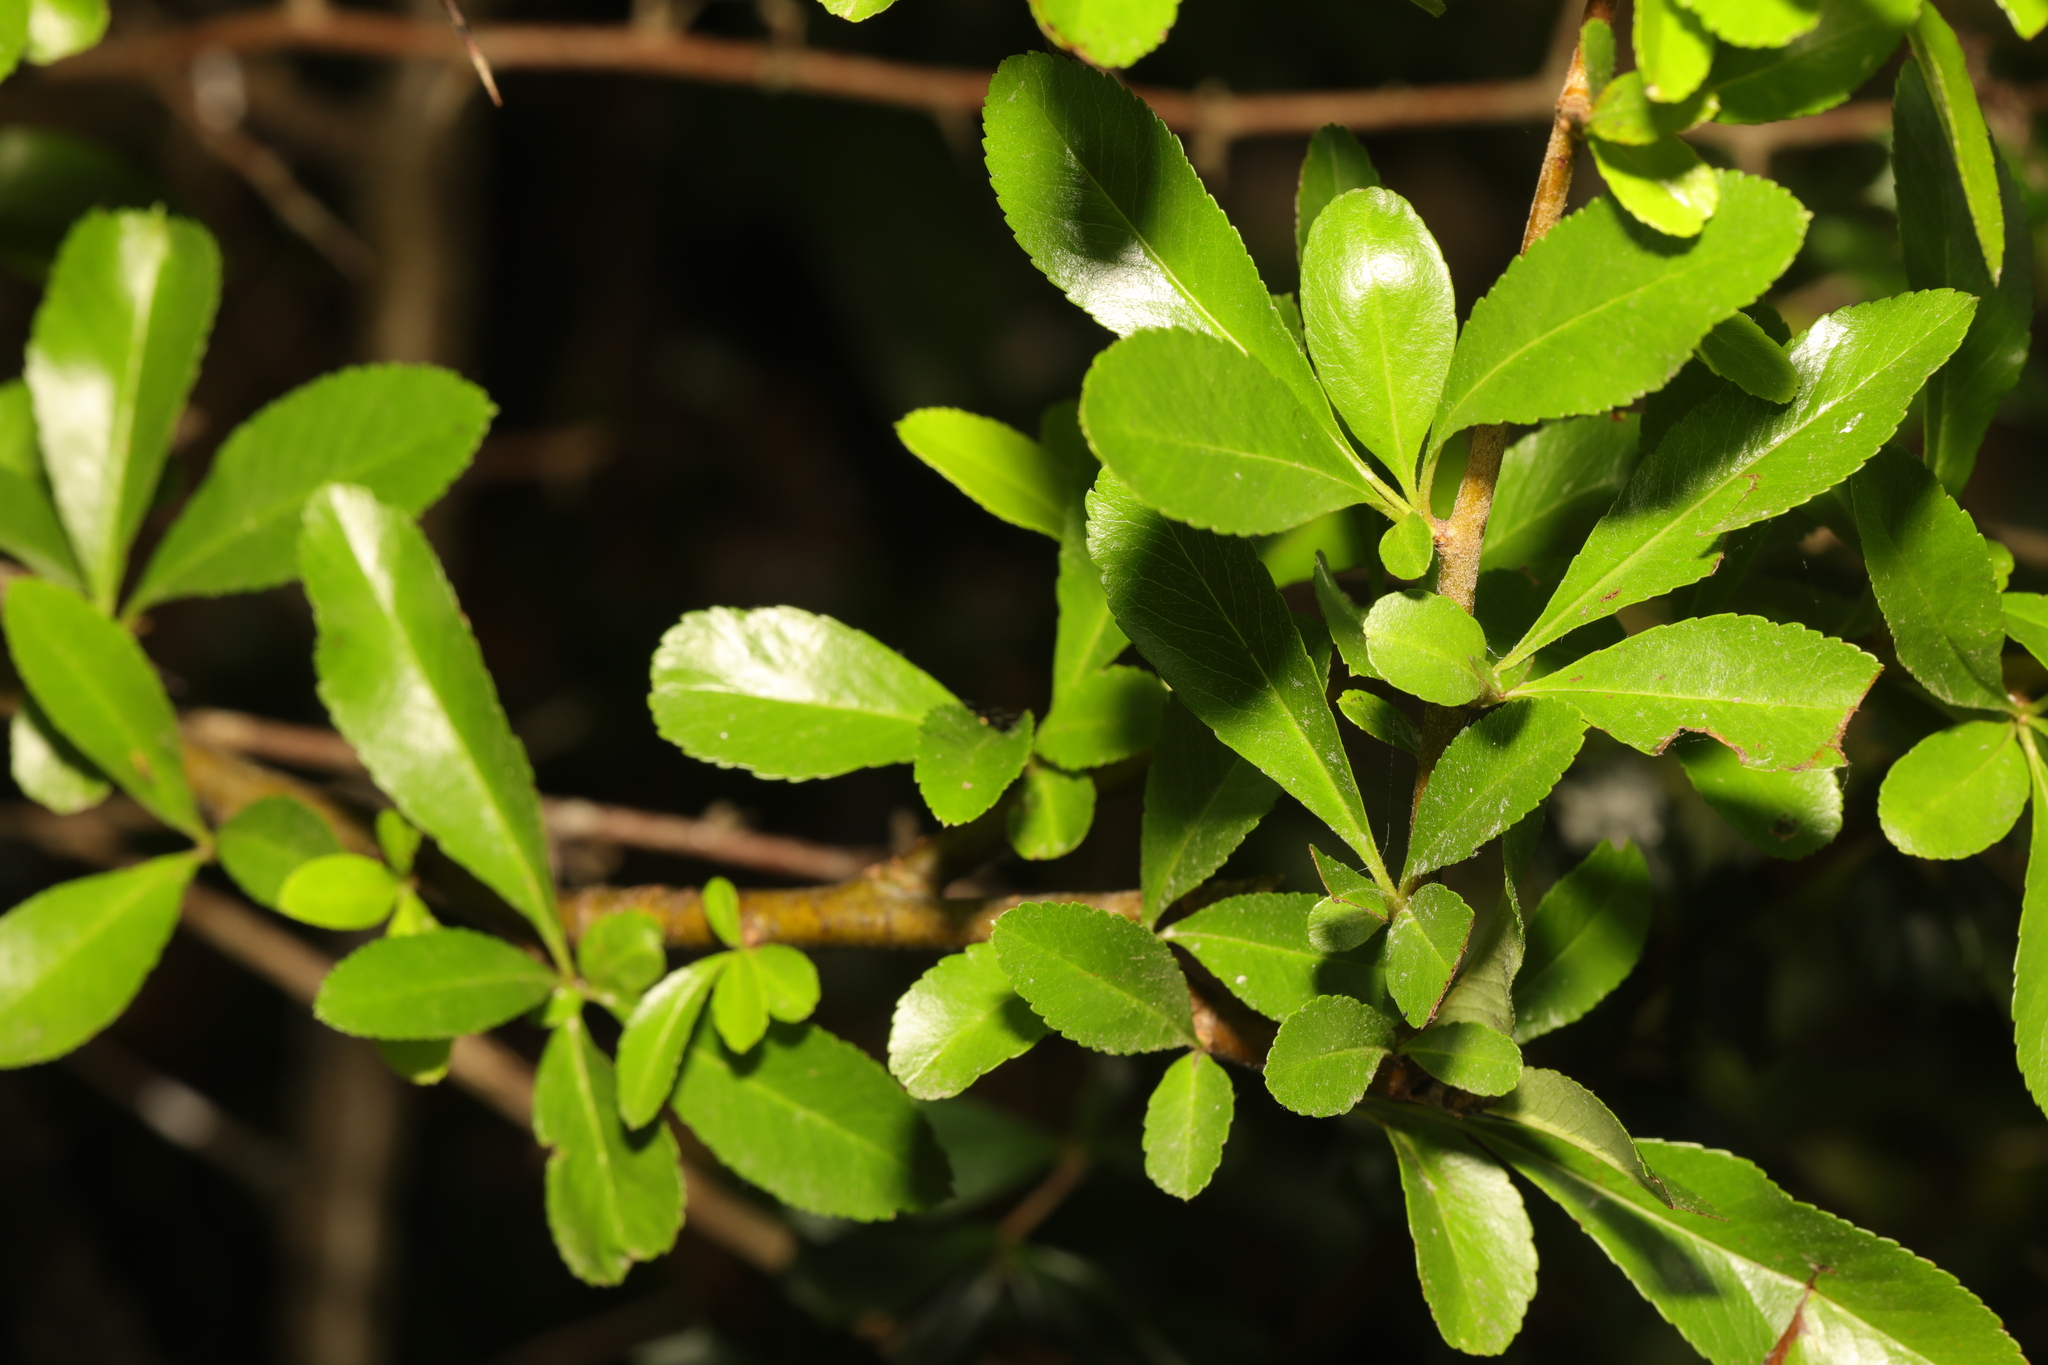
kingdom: Plantae
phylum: Tracheophyta
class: Magnoliopsida
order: Rosales
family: Rosaceae
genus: Pyracantha
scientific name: Pyracantha coccinea
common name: Firethorn
